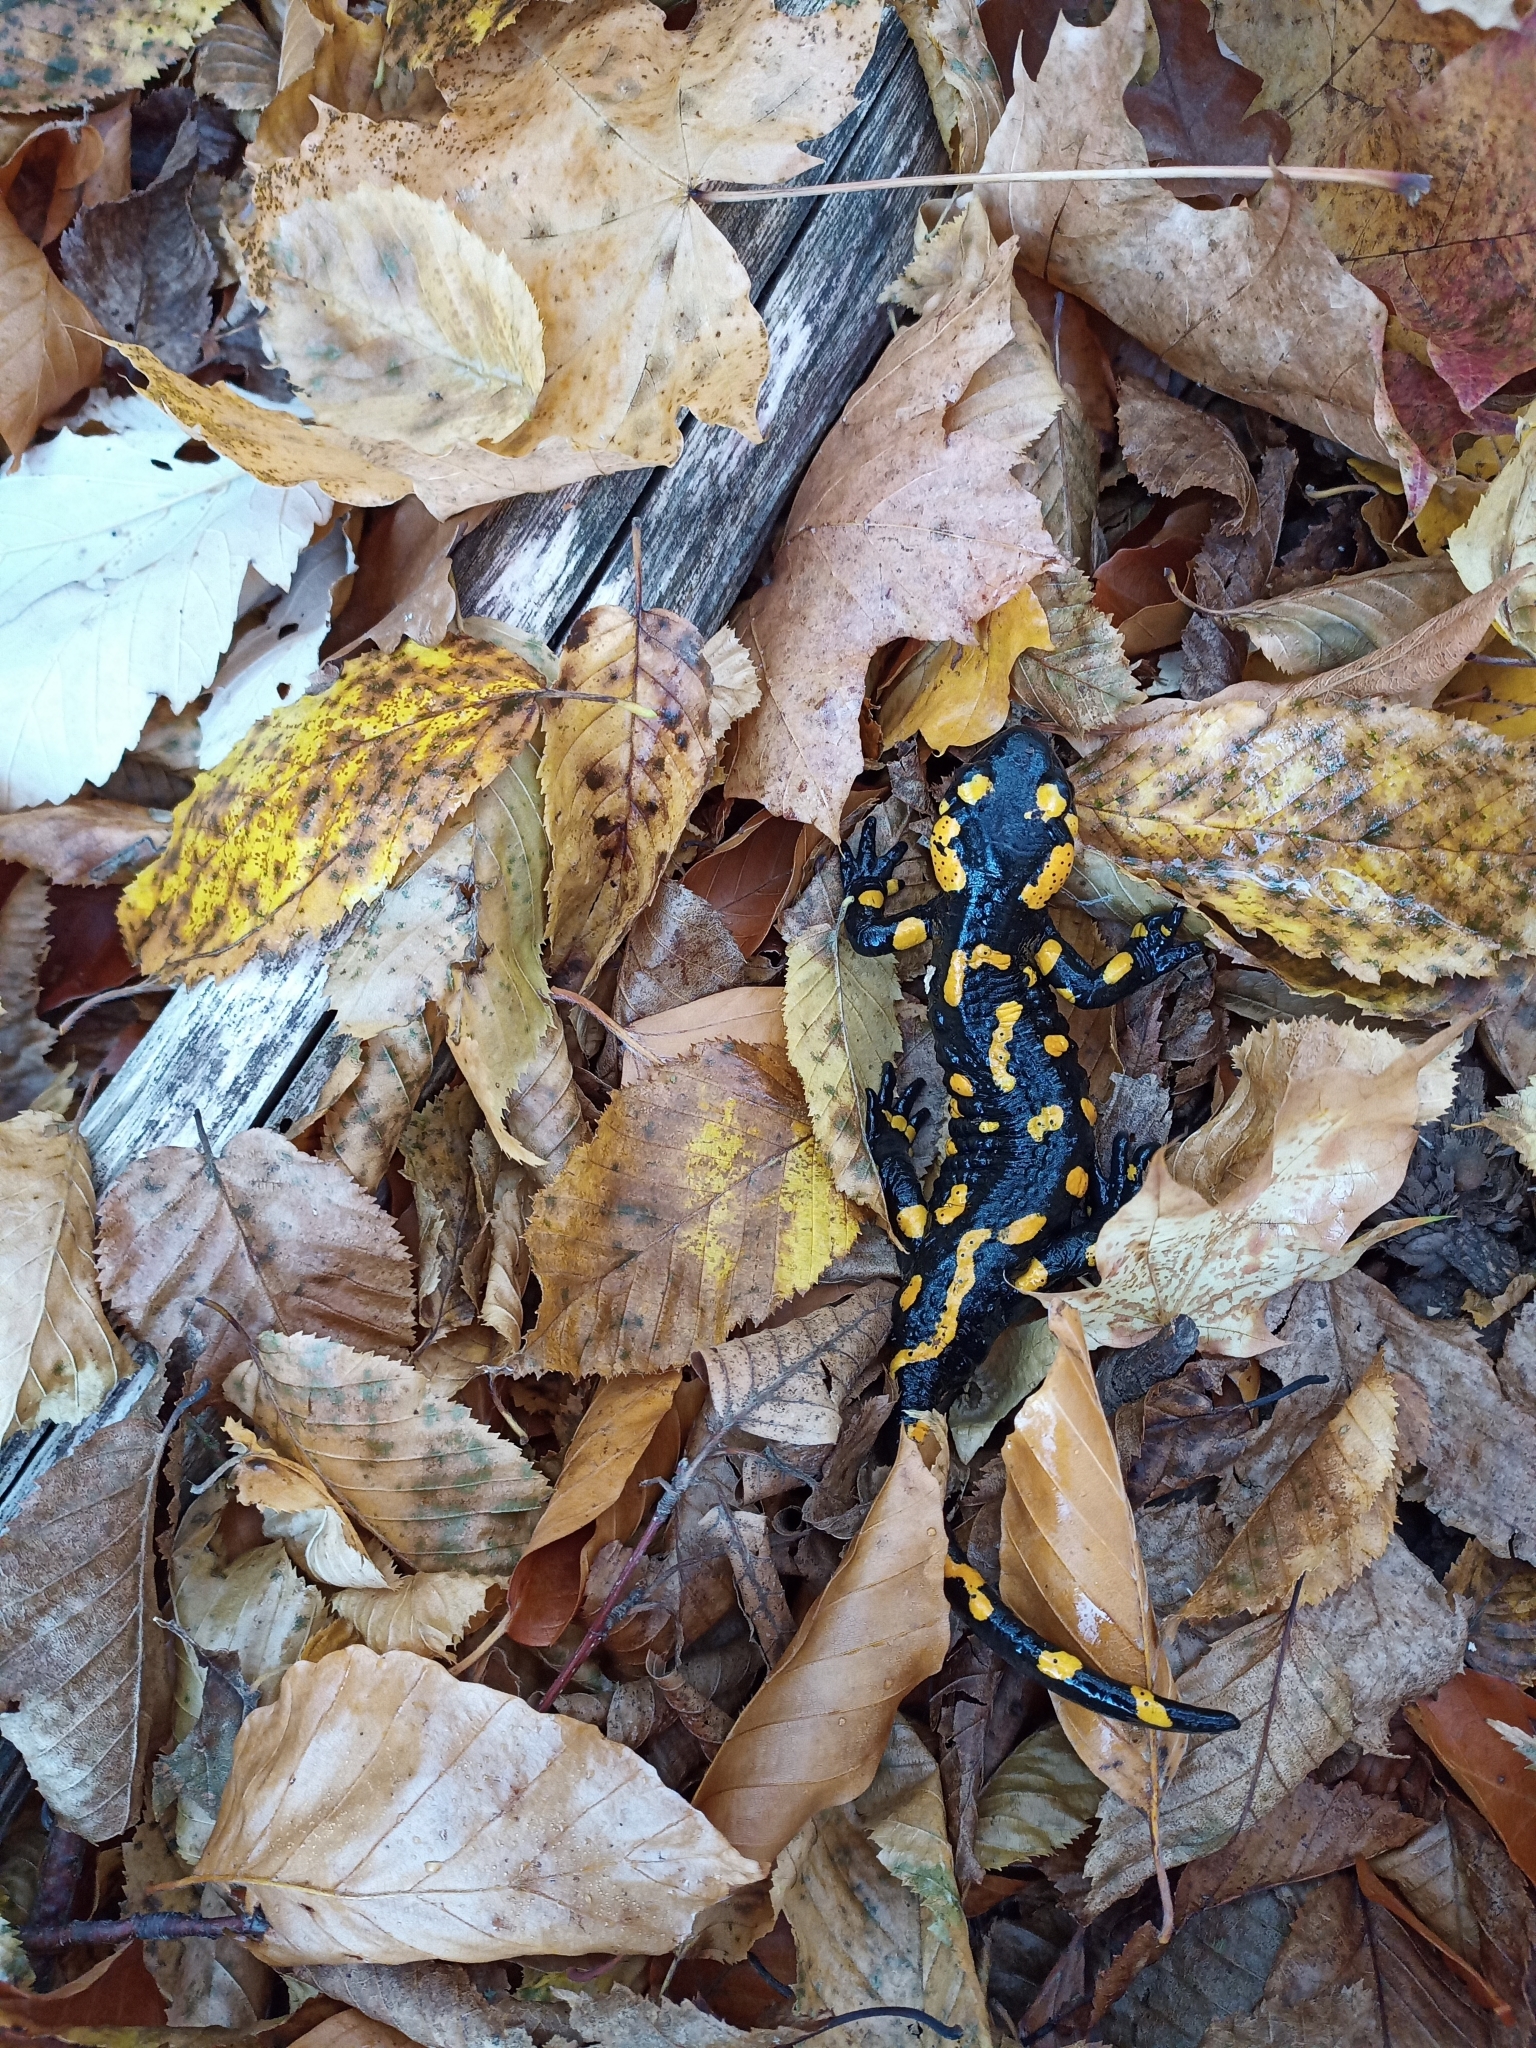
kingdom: Animalia
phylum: Chordata
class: Amphibia
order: Caudata
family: Salamandridae
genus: Salamandra
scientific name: Salamandra salamandra
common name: Fire salamander
